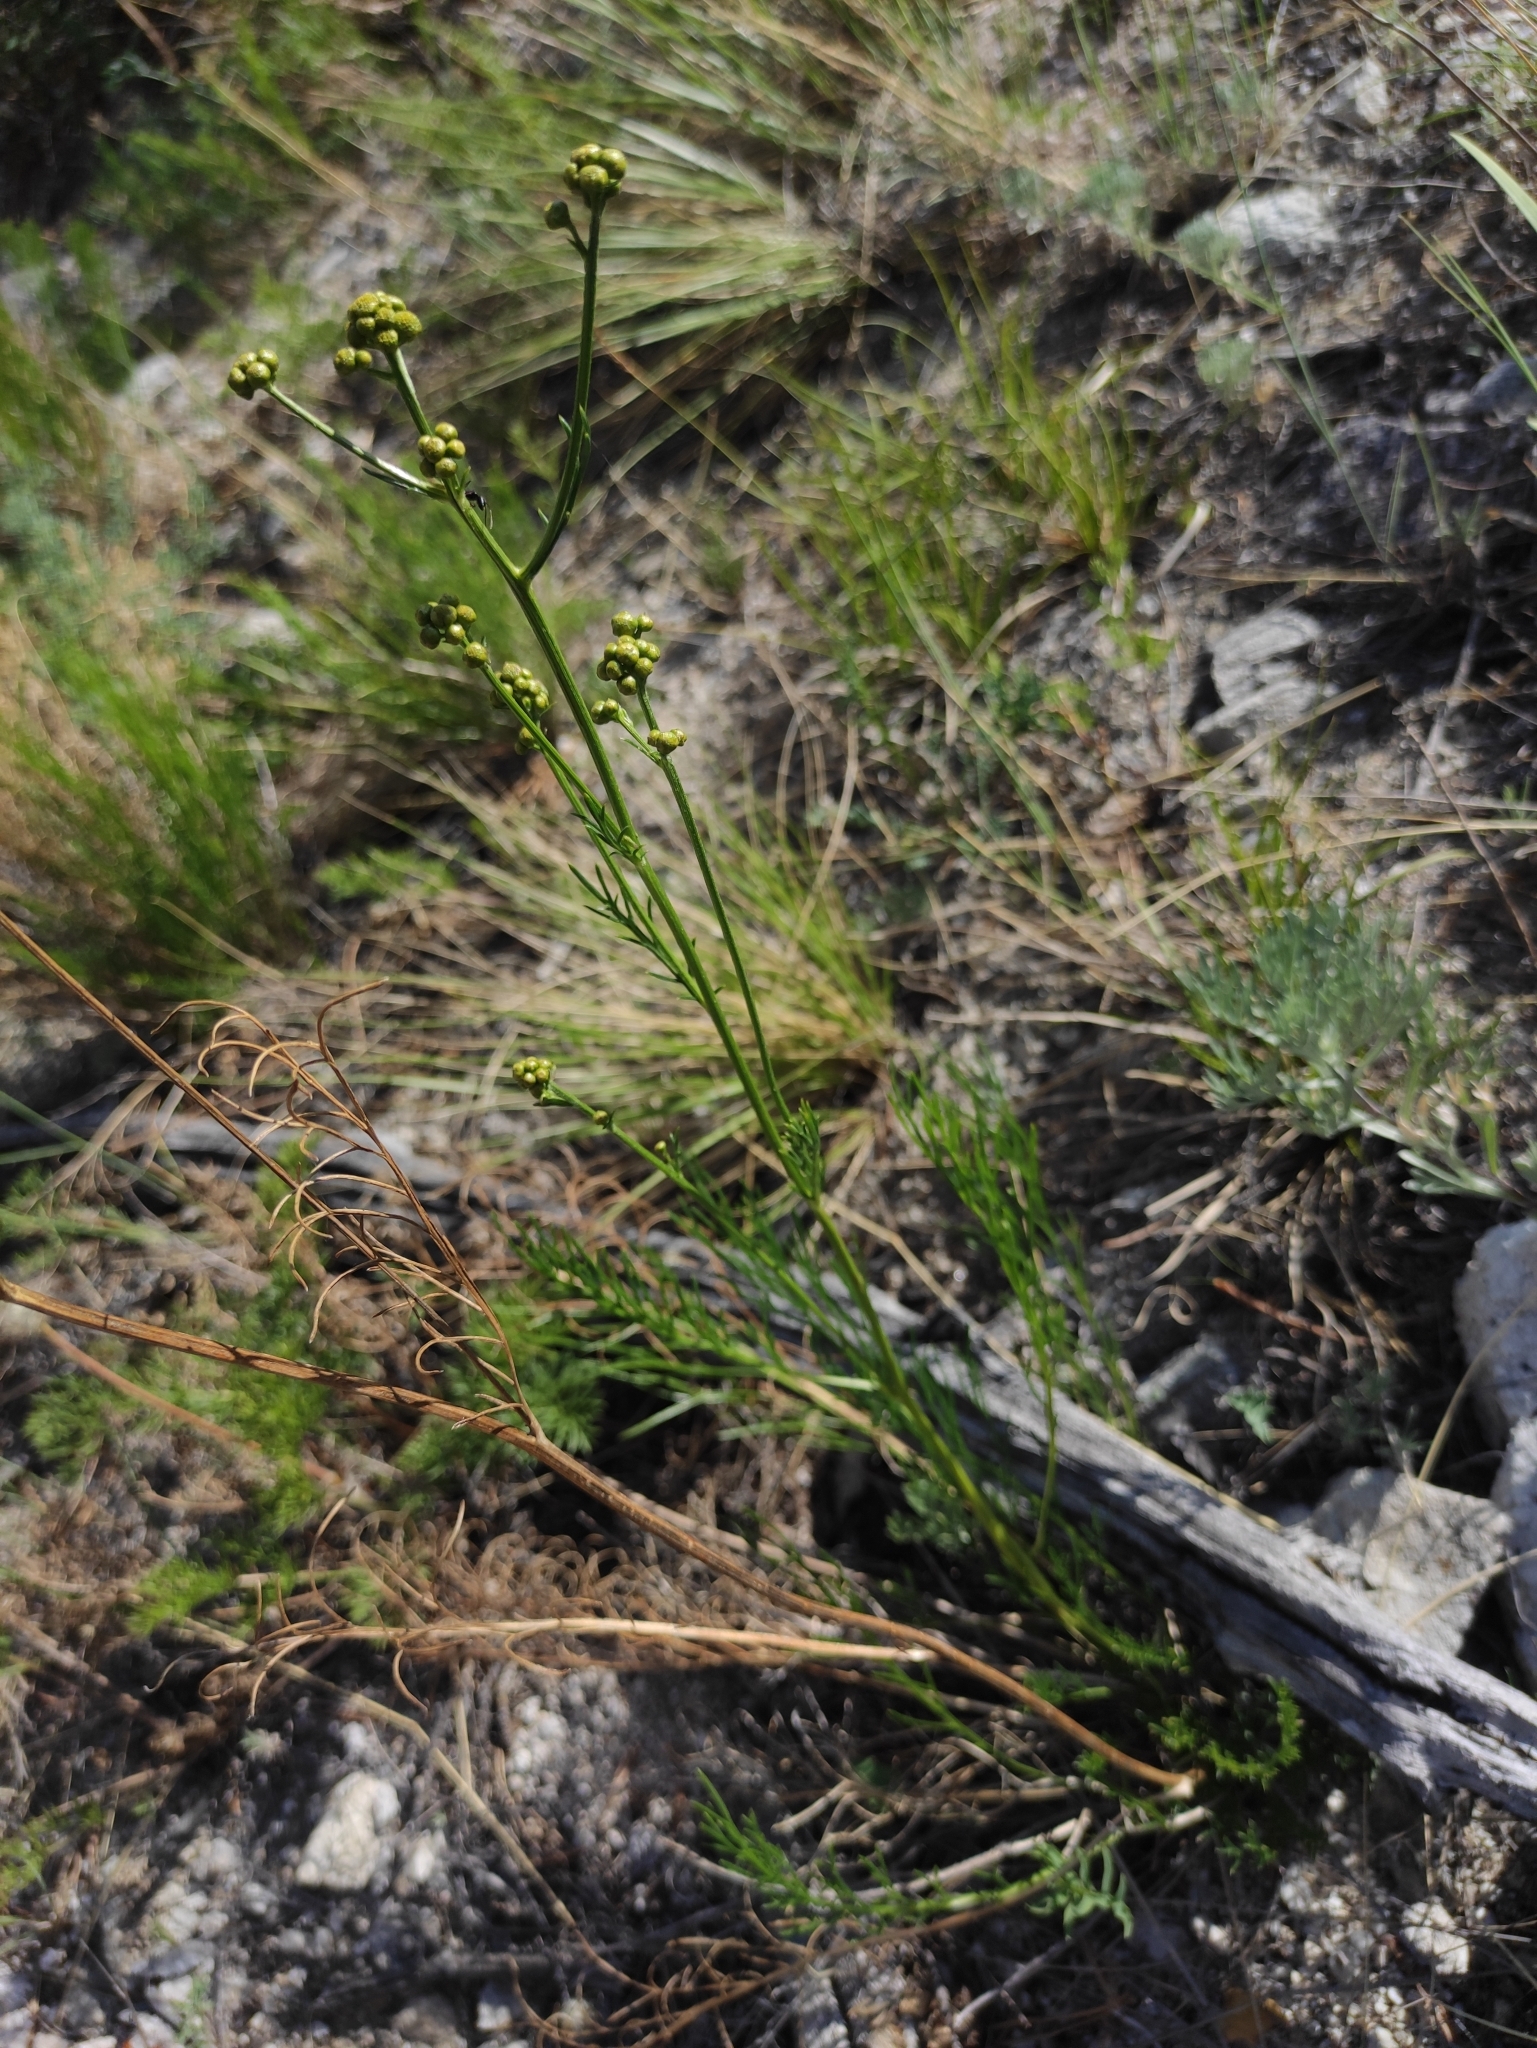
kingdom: Plantae
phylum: Tracheophyta
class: Magnoliopsida
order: Asterales
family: Asteraceae
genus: Filifolium
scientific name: Filifolium sibiricum
